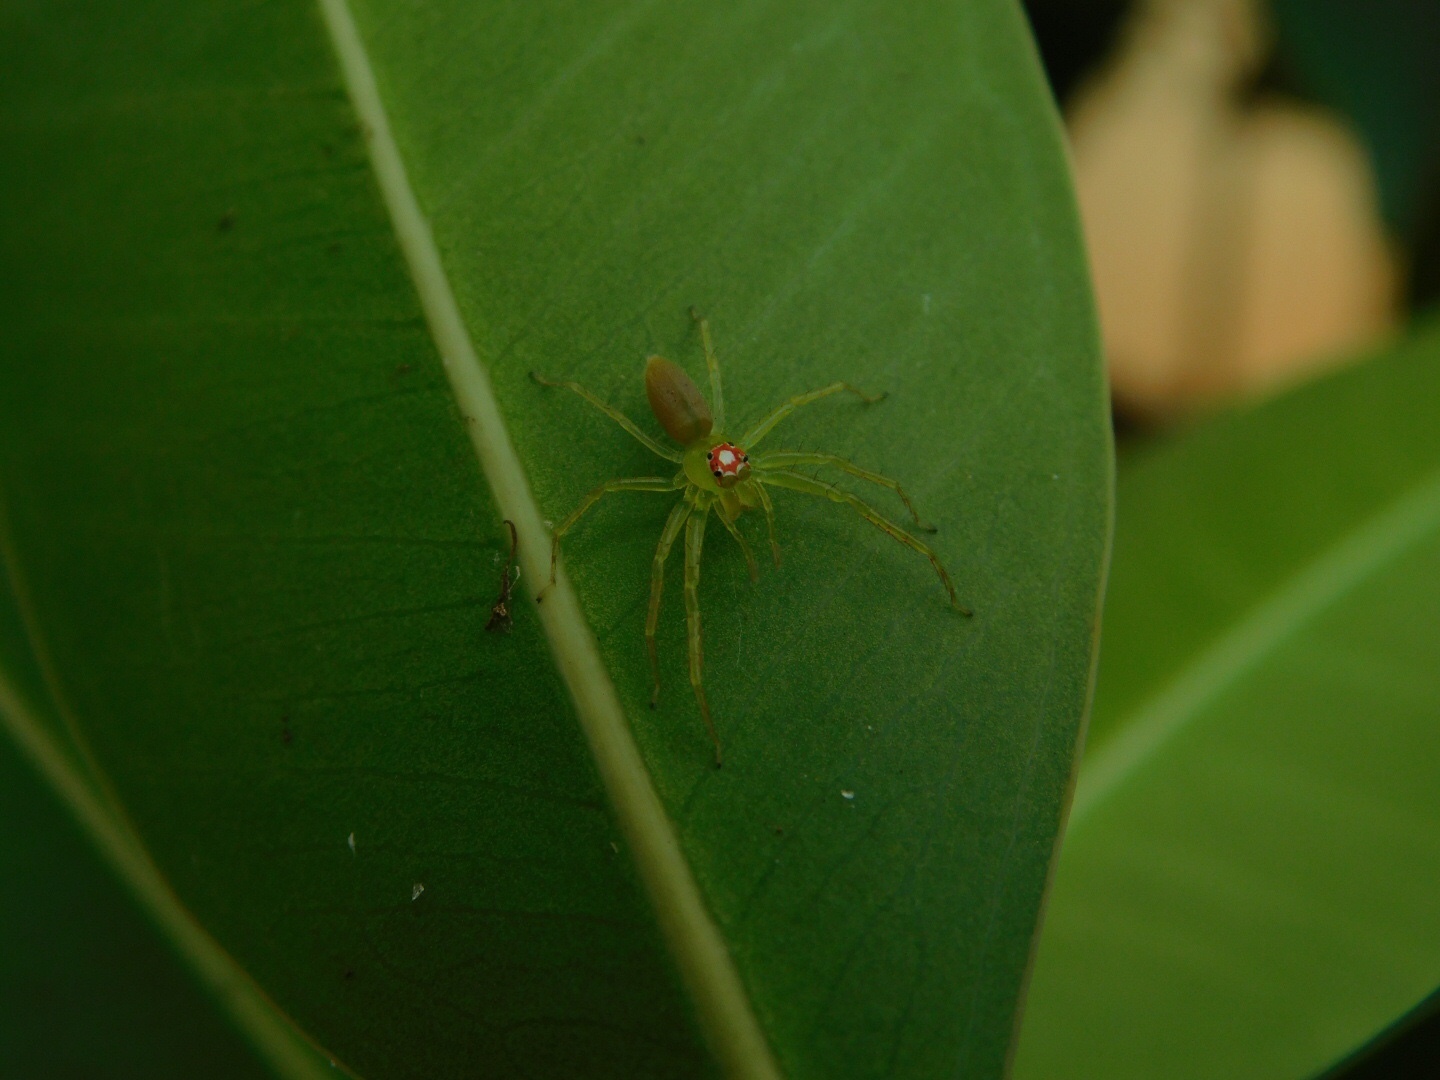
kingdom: Animalia
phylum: Arthropoda
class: Arachnida
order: Araneae
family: Salticidae
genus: Lyssomanes
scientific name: Lyssomanes viridis
